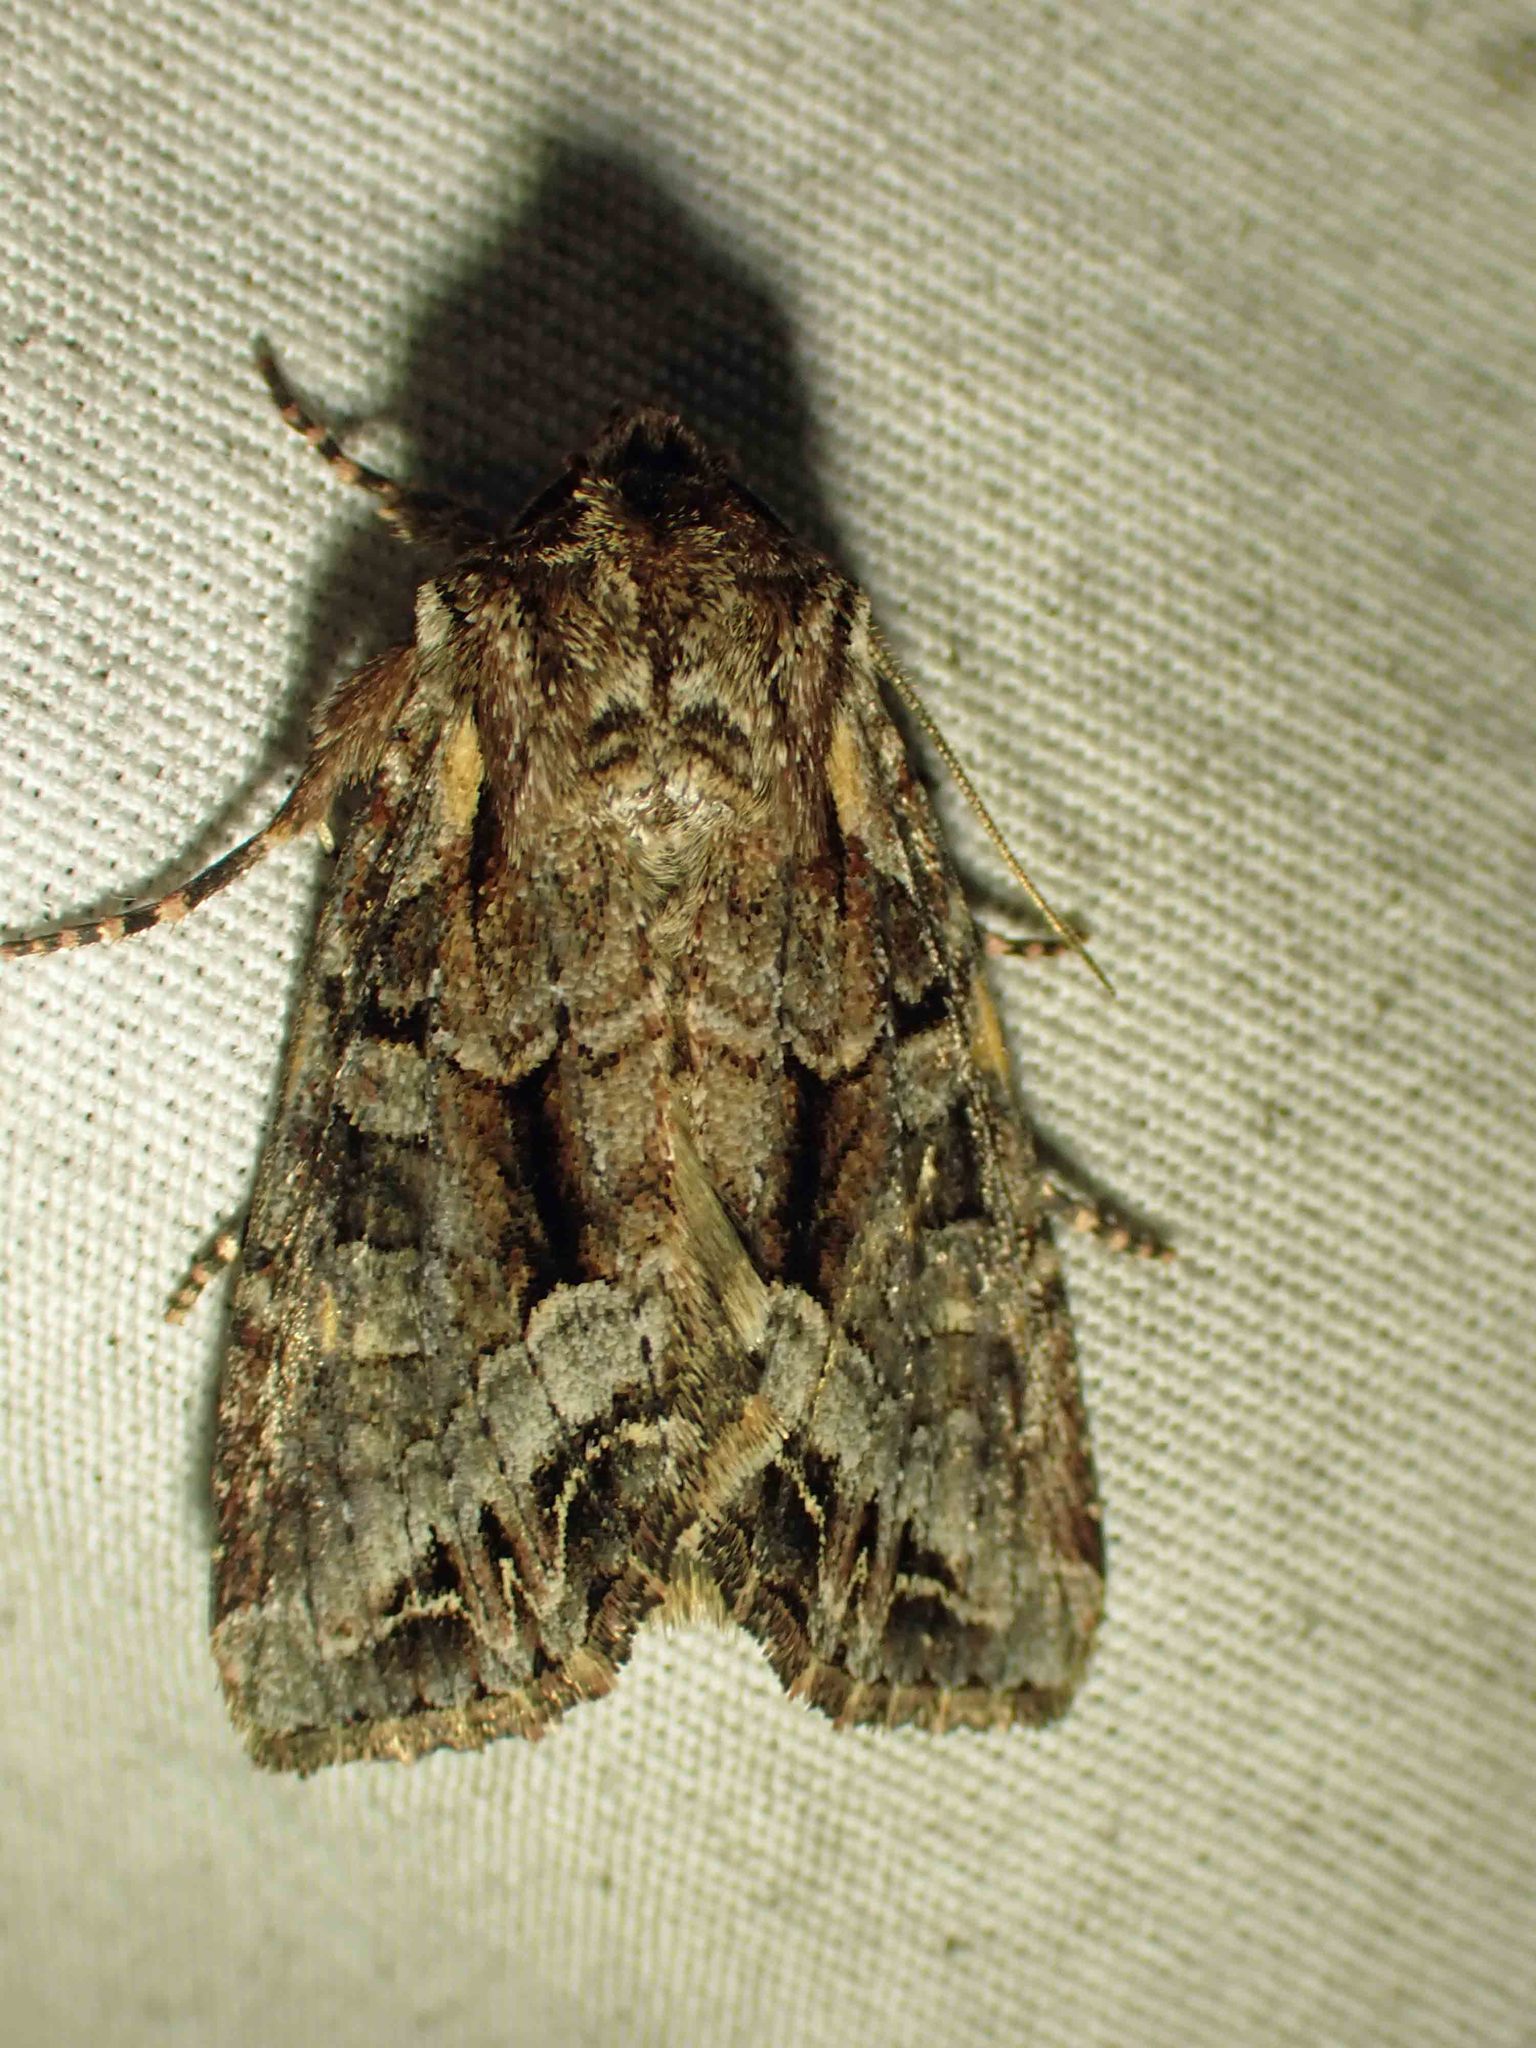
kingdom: Animalia
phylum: Arthropoda
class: Insecta
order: Lepidoptera
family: Noctuidae
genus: Lacanobia
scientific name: Lacanobia grandis
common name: Grand arches moth
